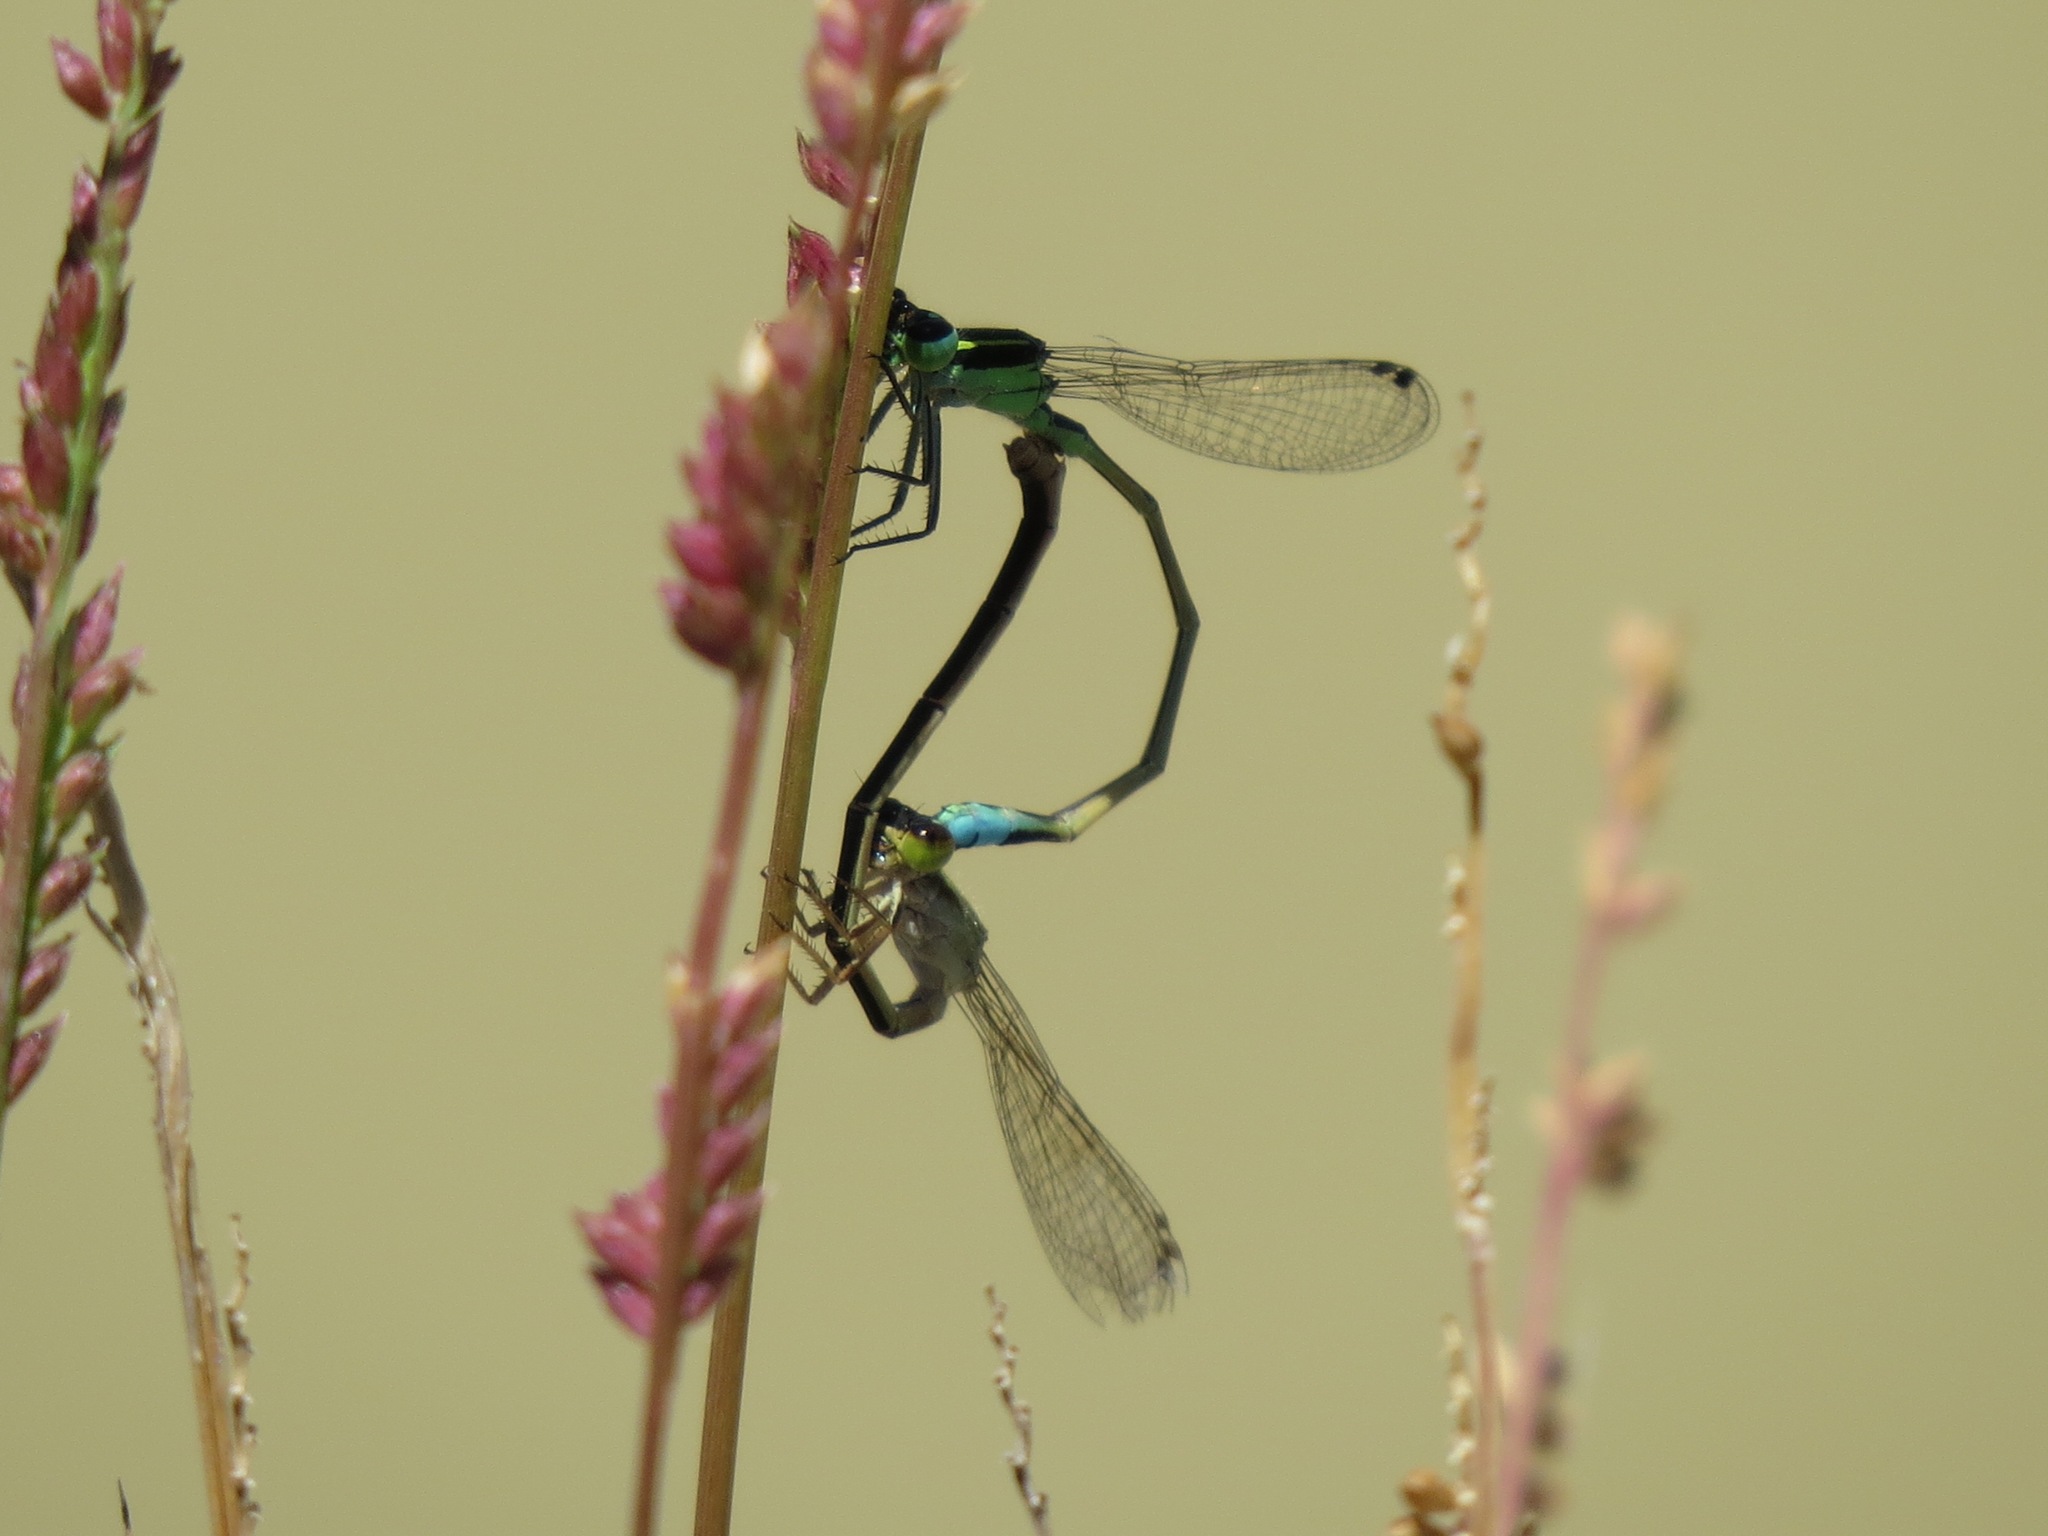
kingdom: Animalia
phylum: Arthropoda
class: Insecta
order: Odonata
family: Coenagrionidae
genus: Ischnura
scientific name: Ischnura ramburii
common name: Rambur's forktail
